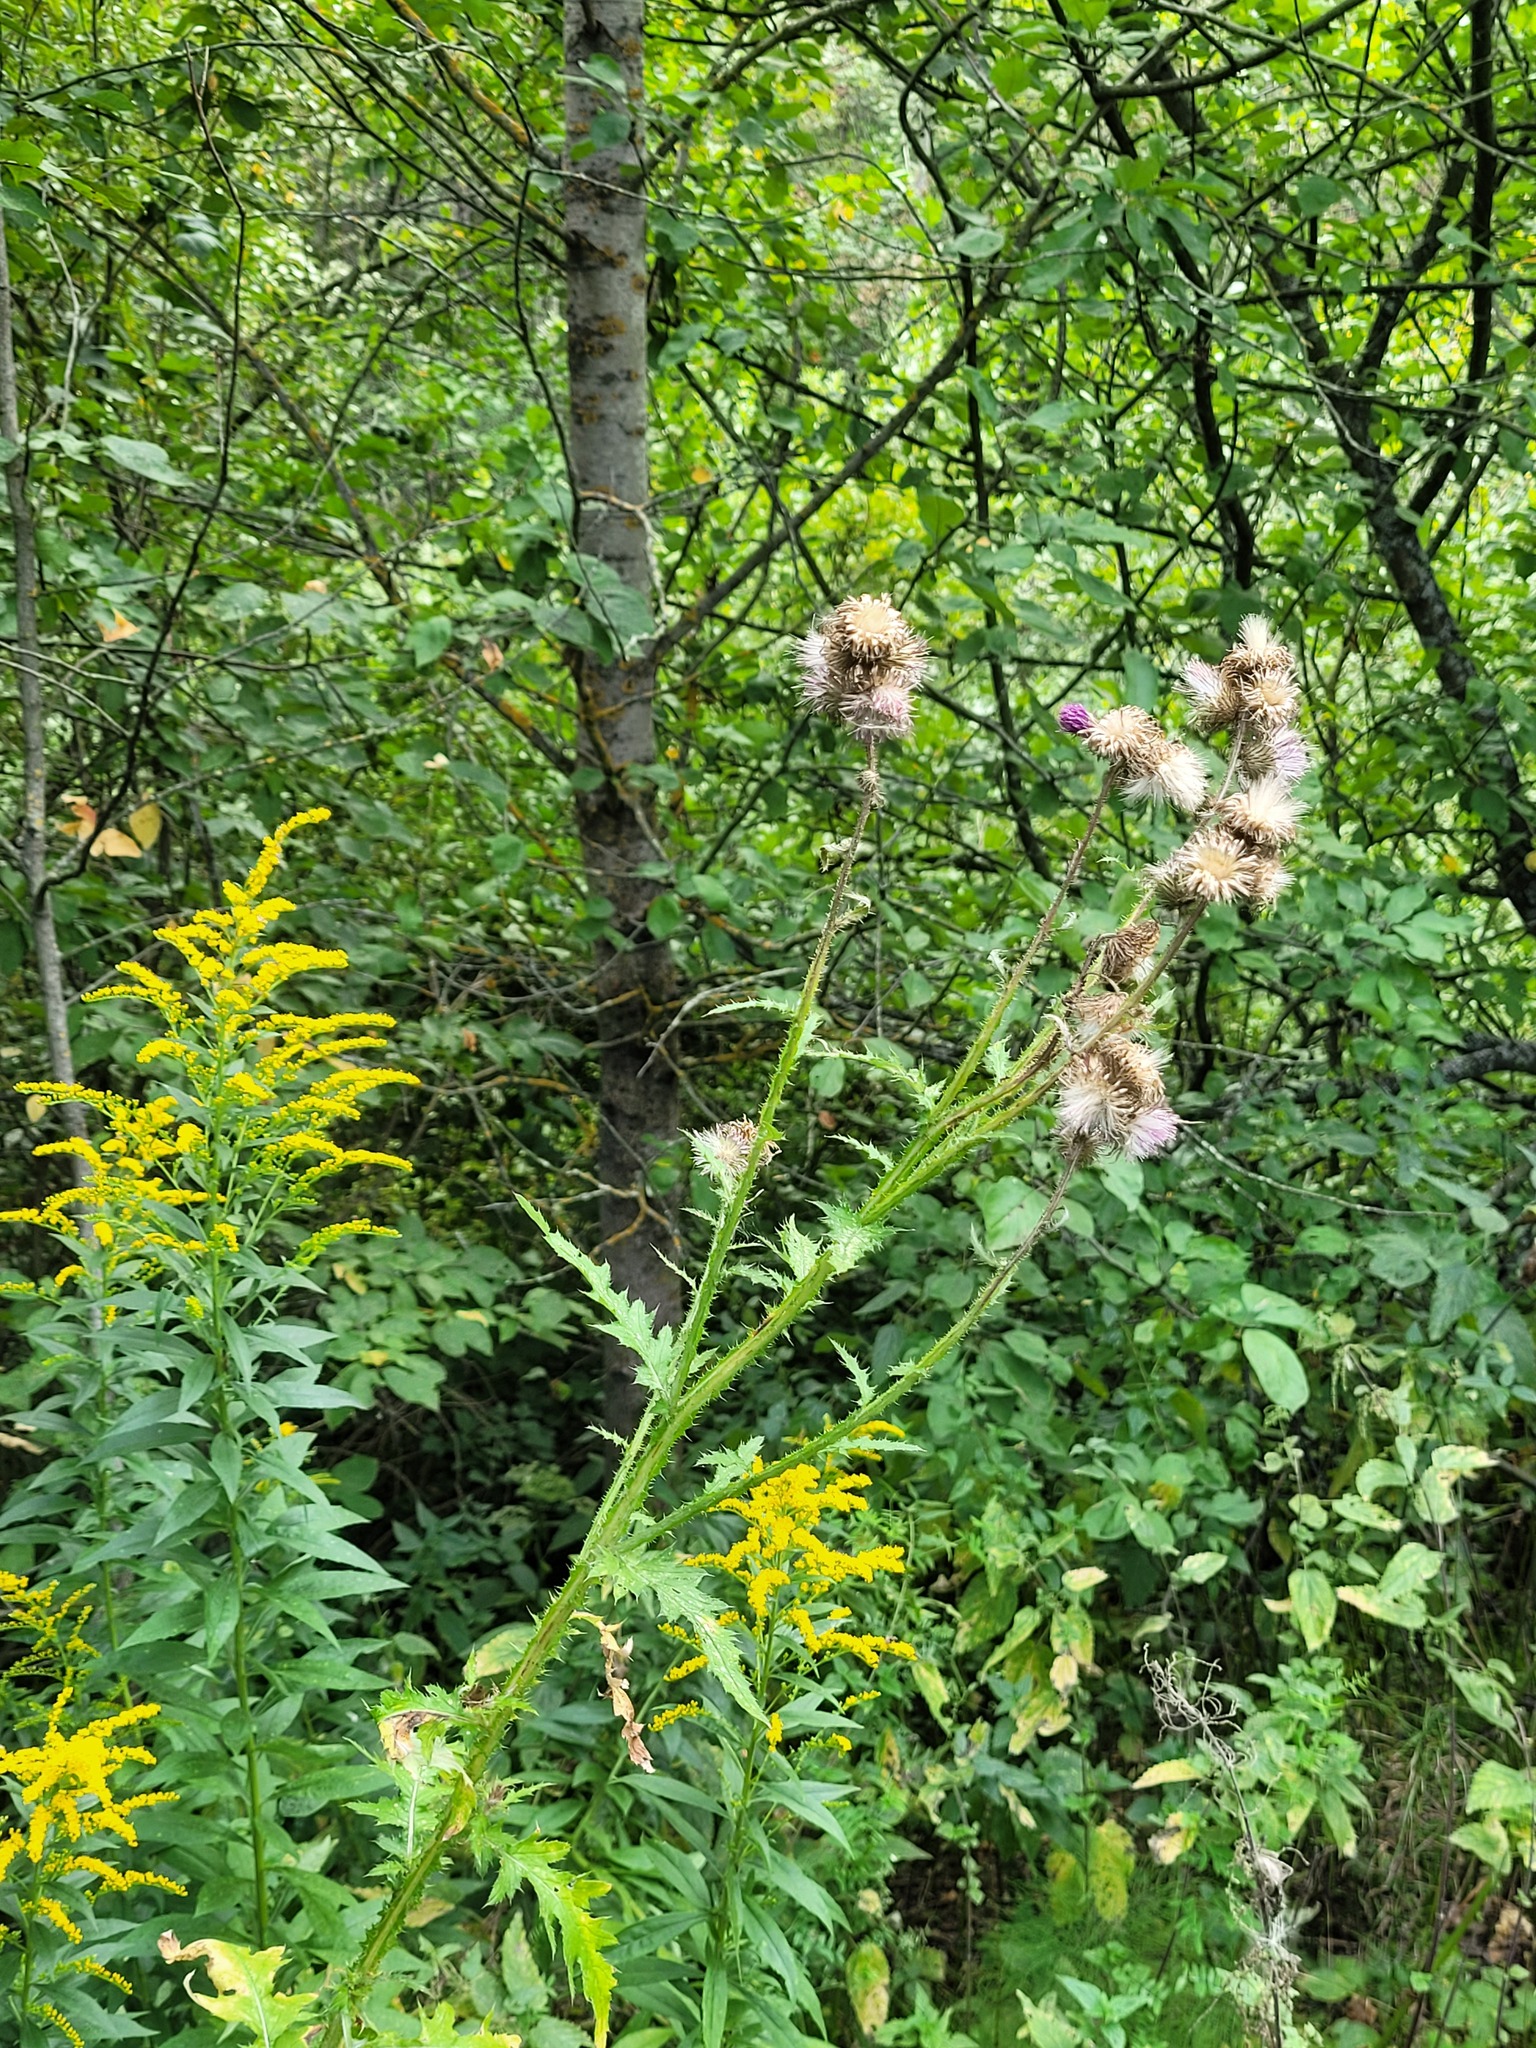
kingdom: Plantae
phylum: Tracheophyta
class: Magnoliopsida
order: Asterales
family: Asteraceae
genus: Carduus
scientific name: Carduus crispus
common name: Welted thistle
